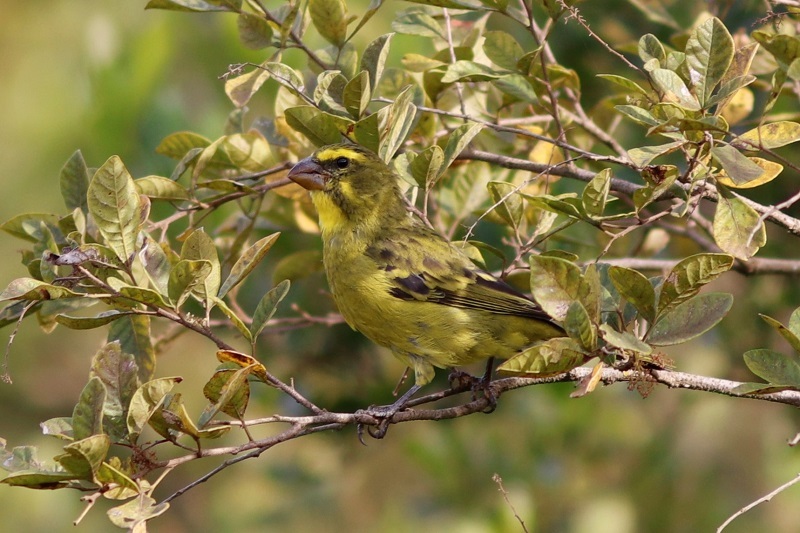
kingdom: Animalia
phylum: Chordata
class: Aves
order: Passeriformes
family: Fringillidae
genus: Crithagra
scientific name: Crithagra sulphurata
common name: Brimstone canary
